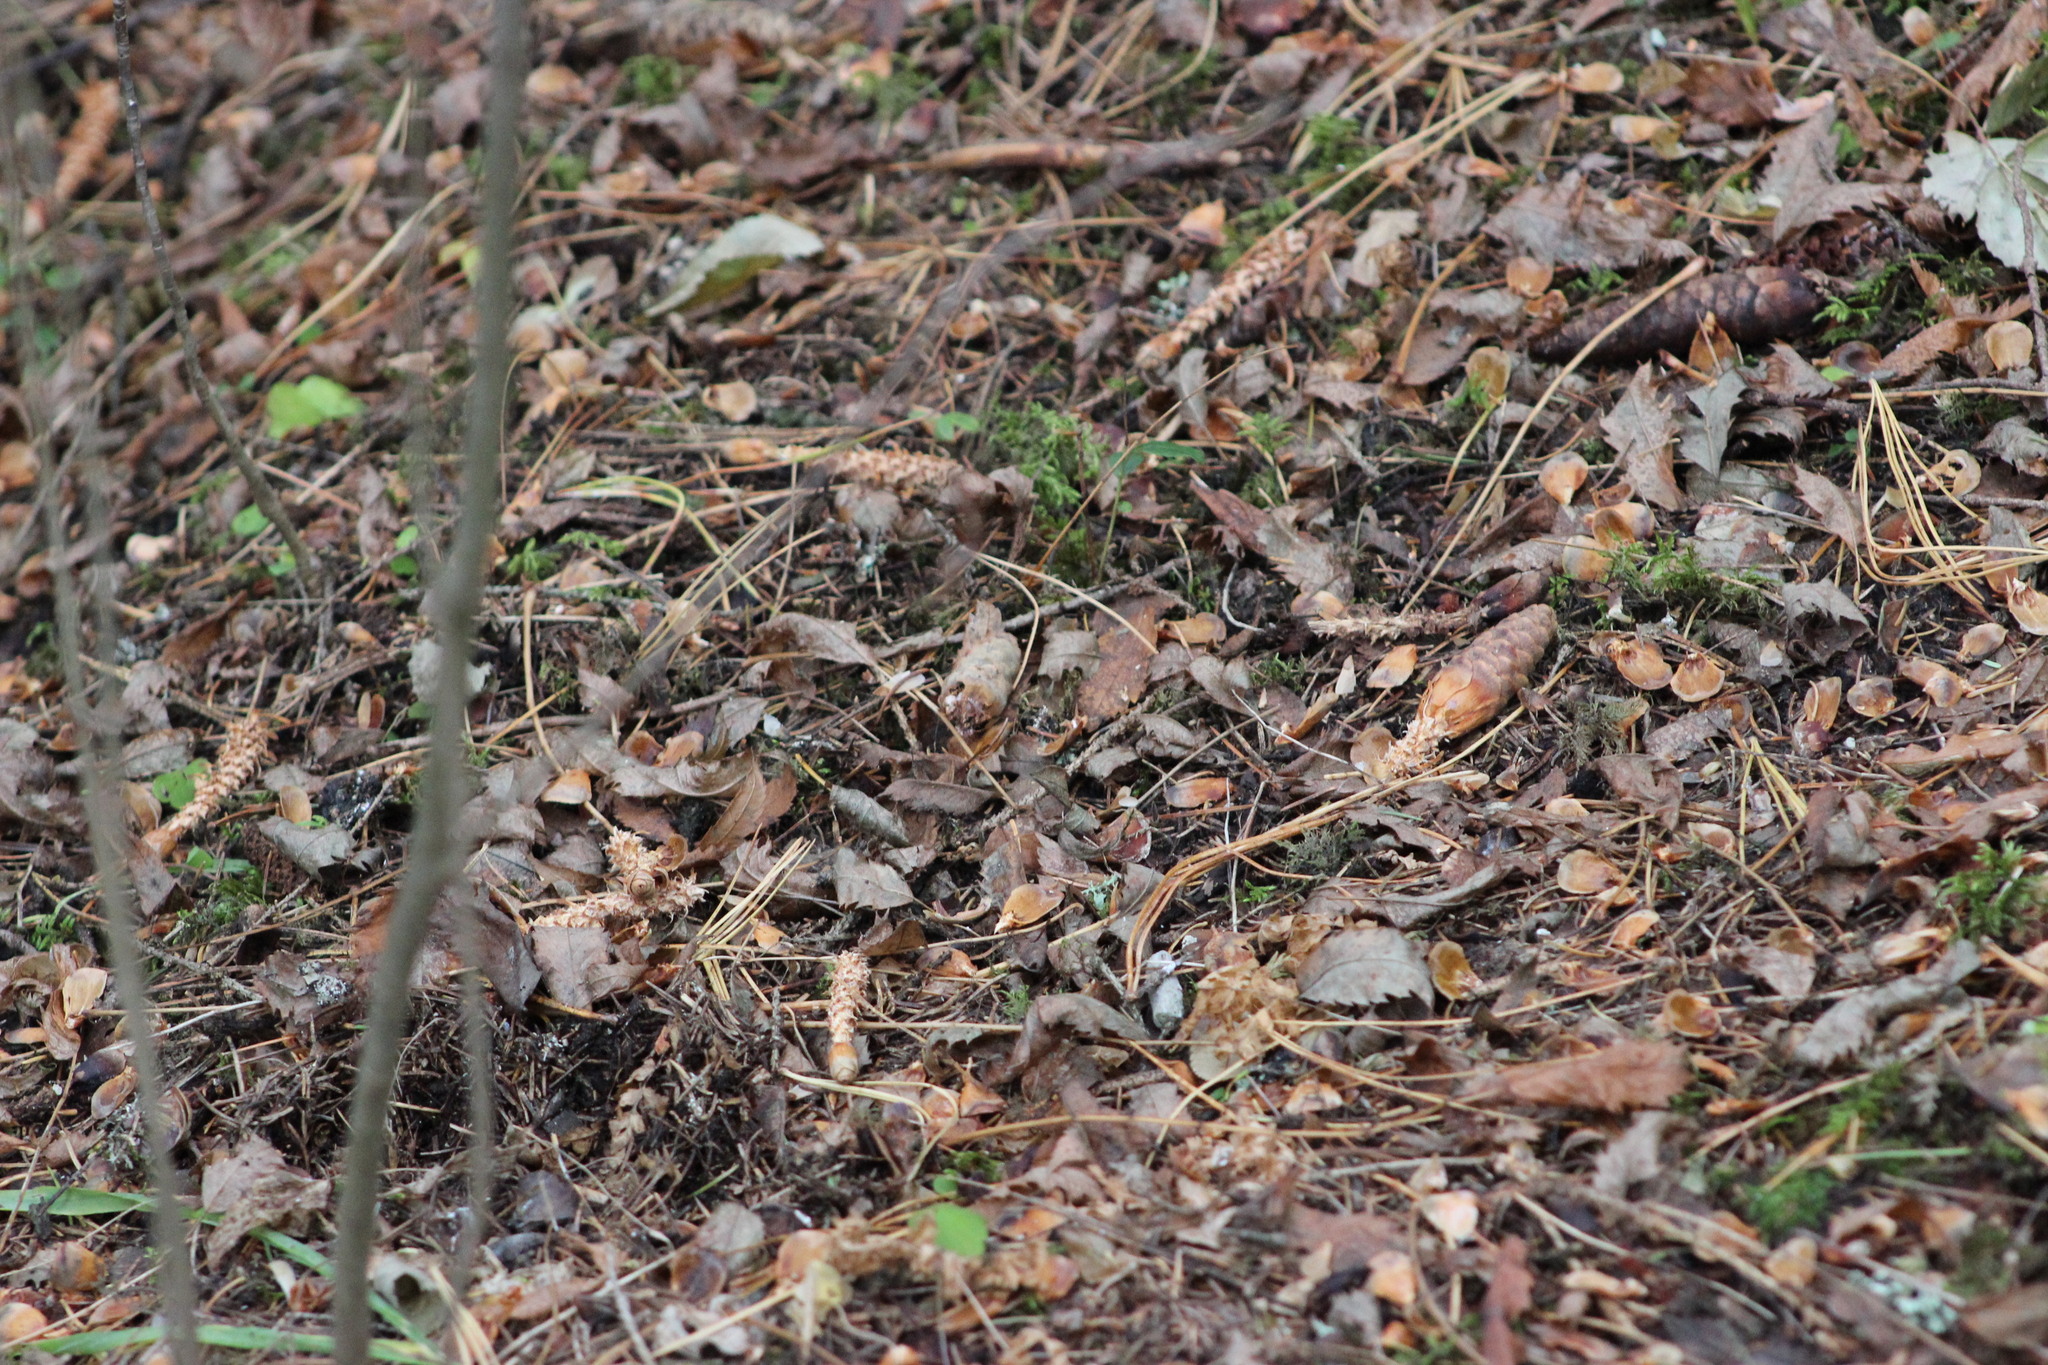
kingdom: Plantae
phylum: Tracheophyta
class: Pinopsida
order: Pinales
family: Pinaceae
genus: Picea
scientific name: Picea obovata
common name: Siberian spruce
